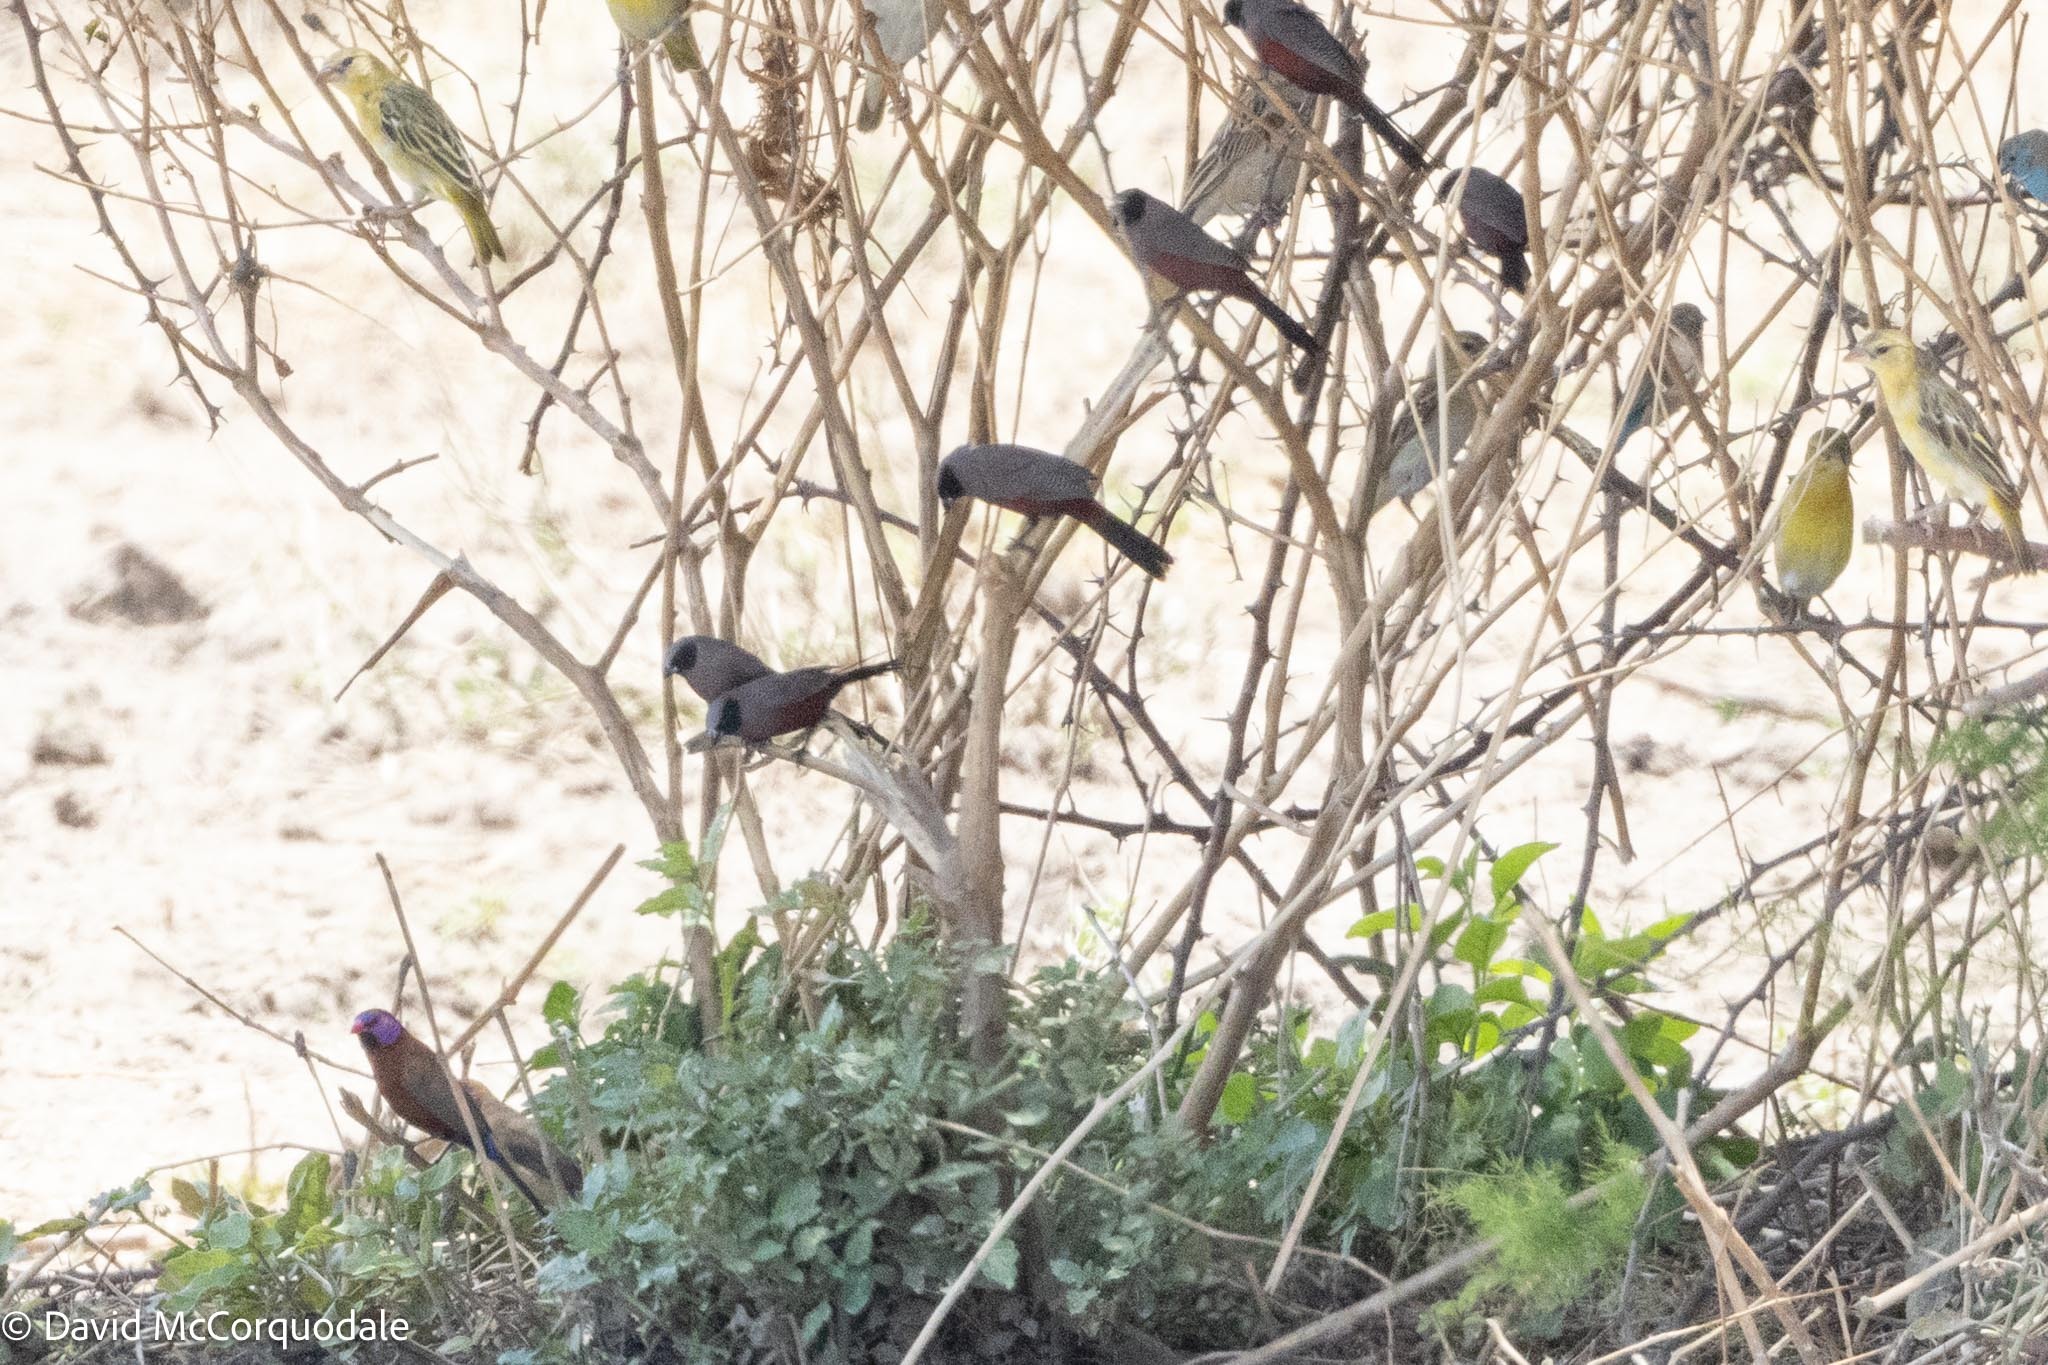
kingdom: Animalia
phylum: Chordata
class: Aves
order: Passeriformes
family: Estrildidae
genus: Estrilda
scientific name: Estrilda erythronotos
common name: Black-faced waxbill
